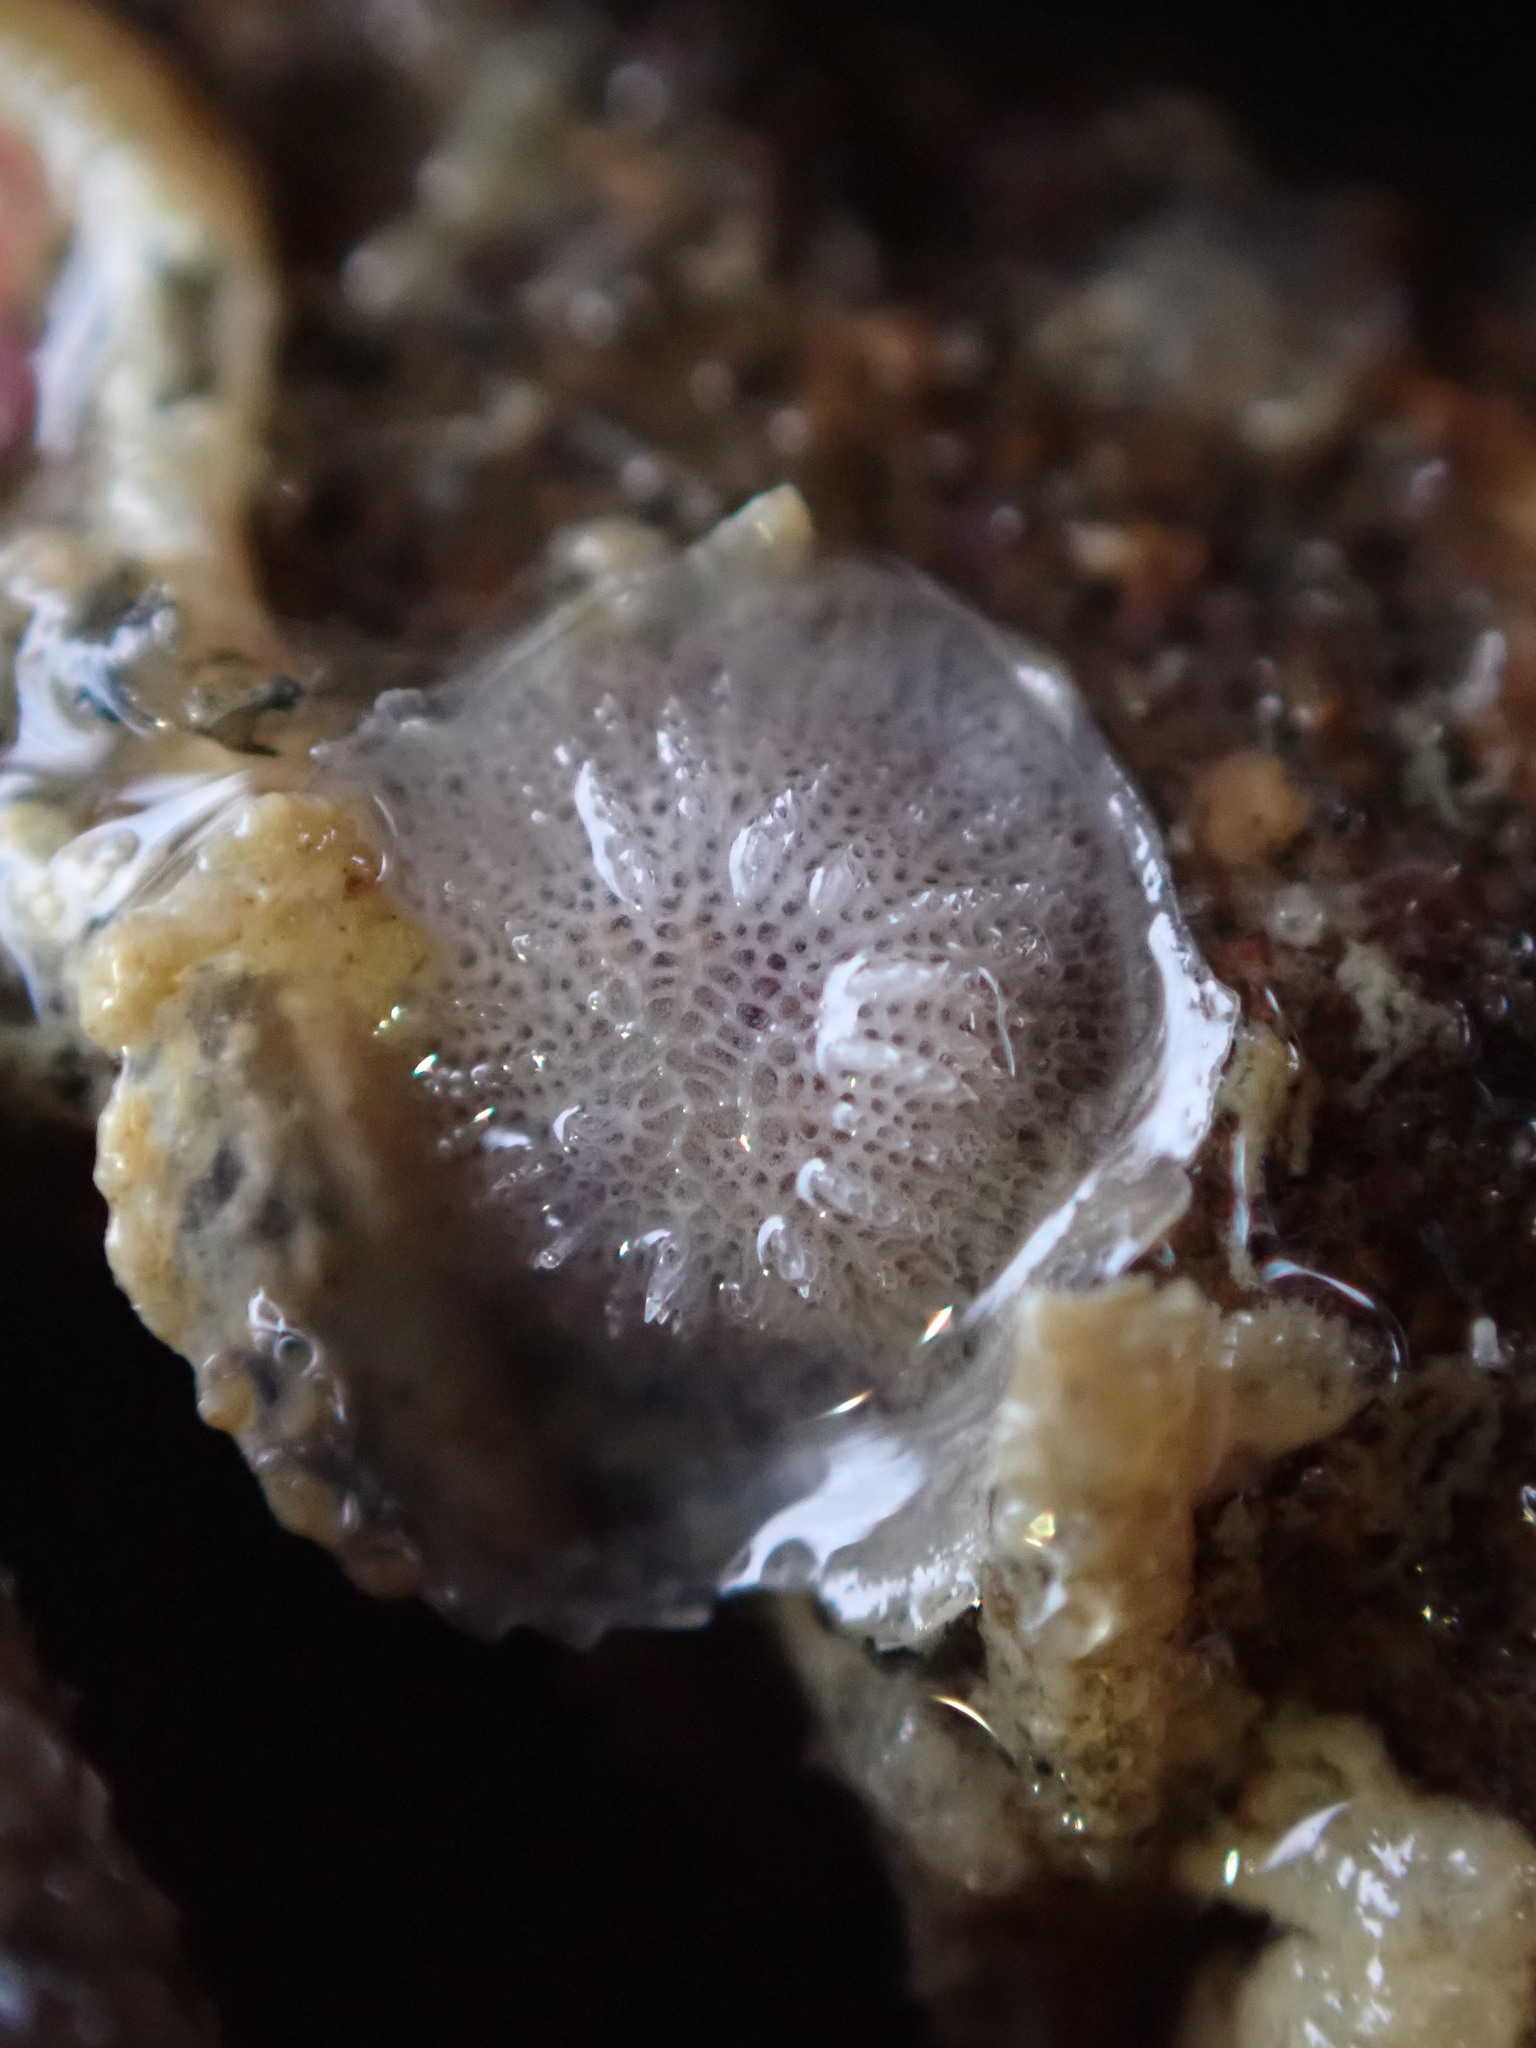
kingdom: Animalia
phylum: Bryozoa
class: Stenolaemata
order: Cyclostomatida
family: Lichenoporidae
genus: Disporella
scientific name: Disporella novaehollandiae
